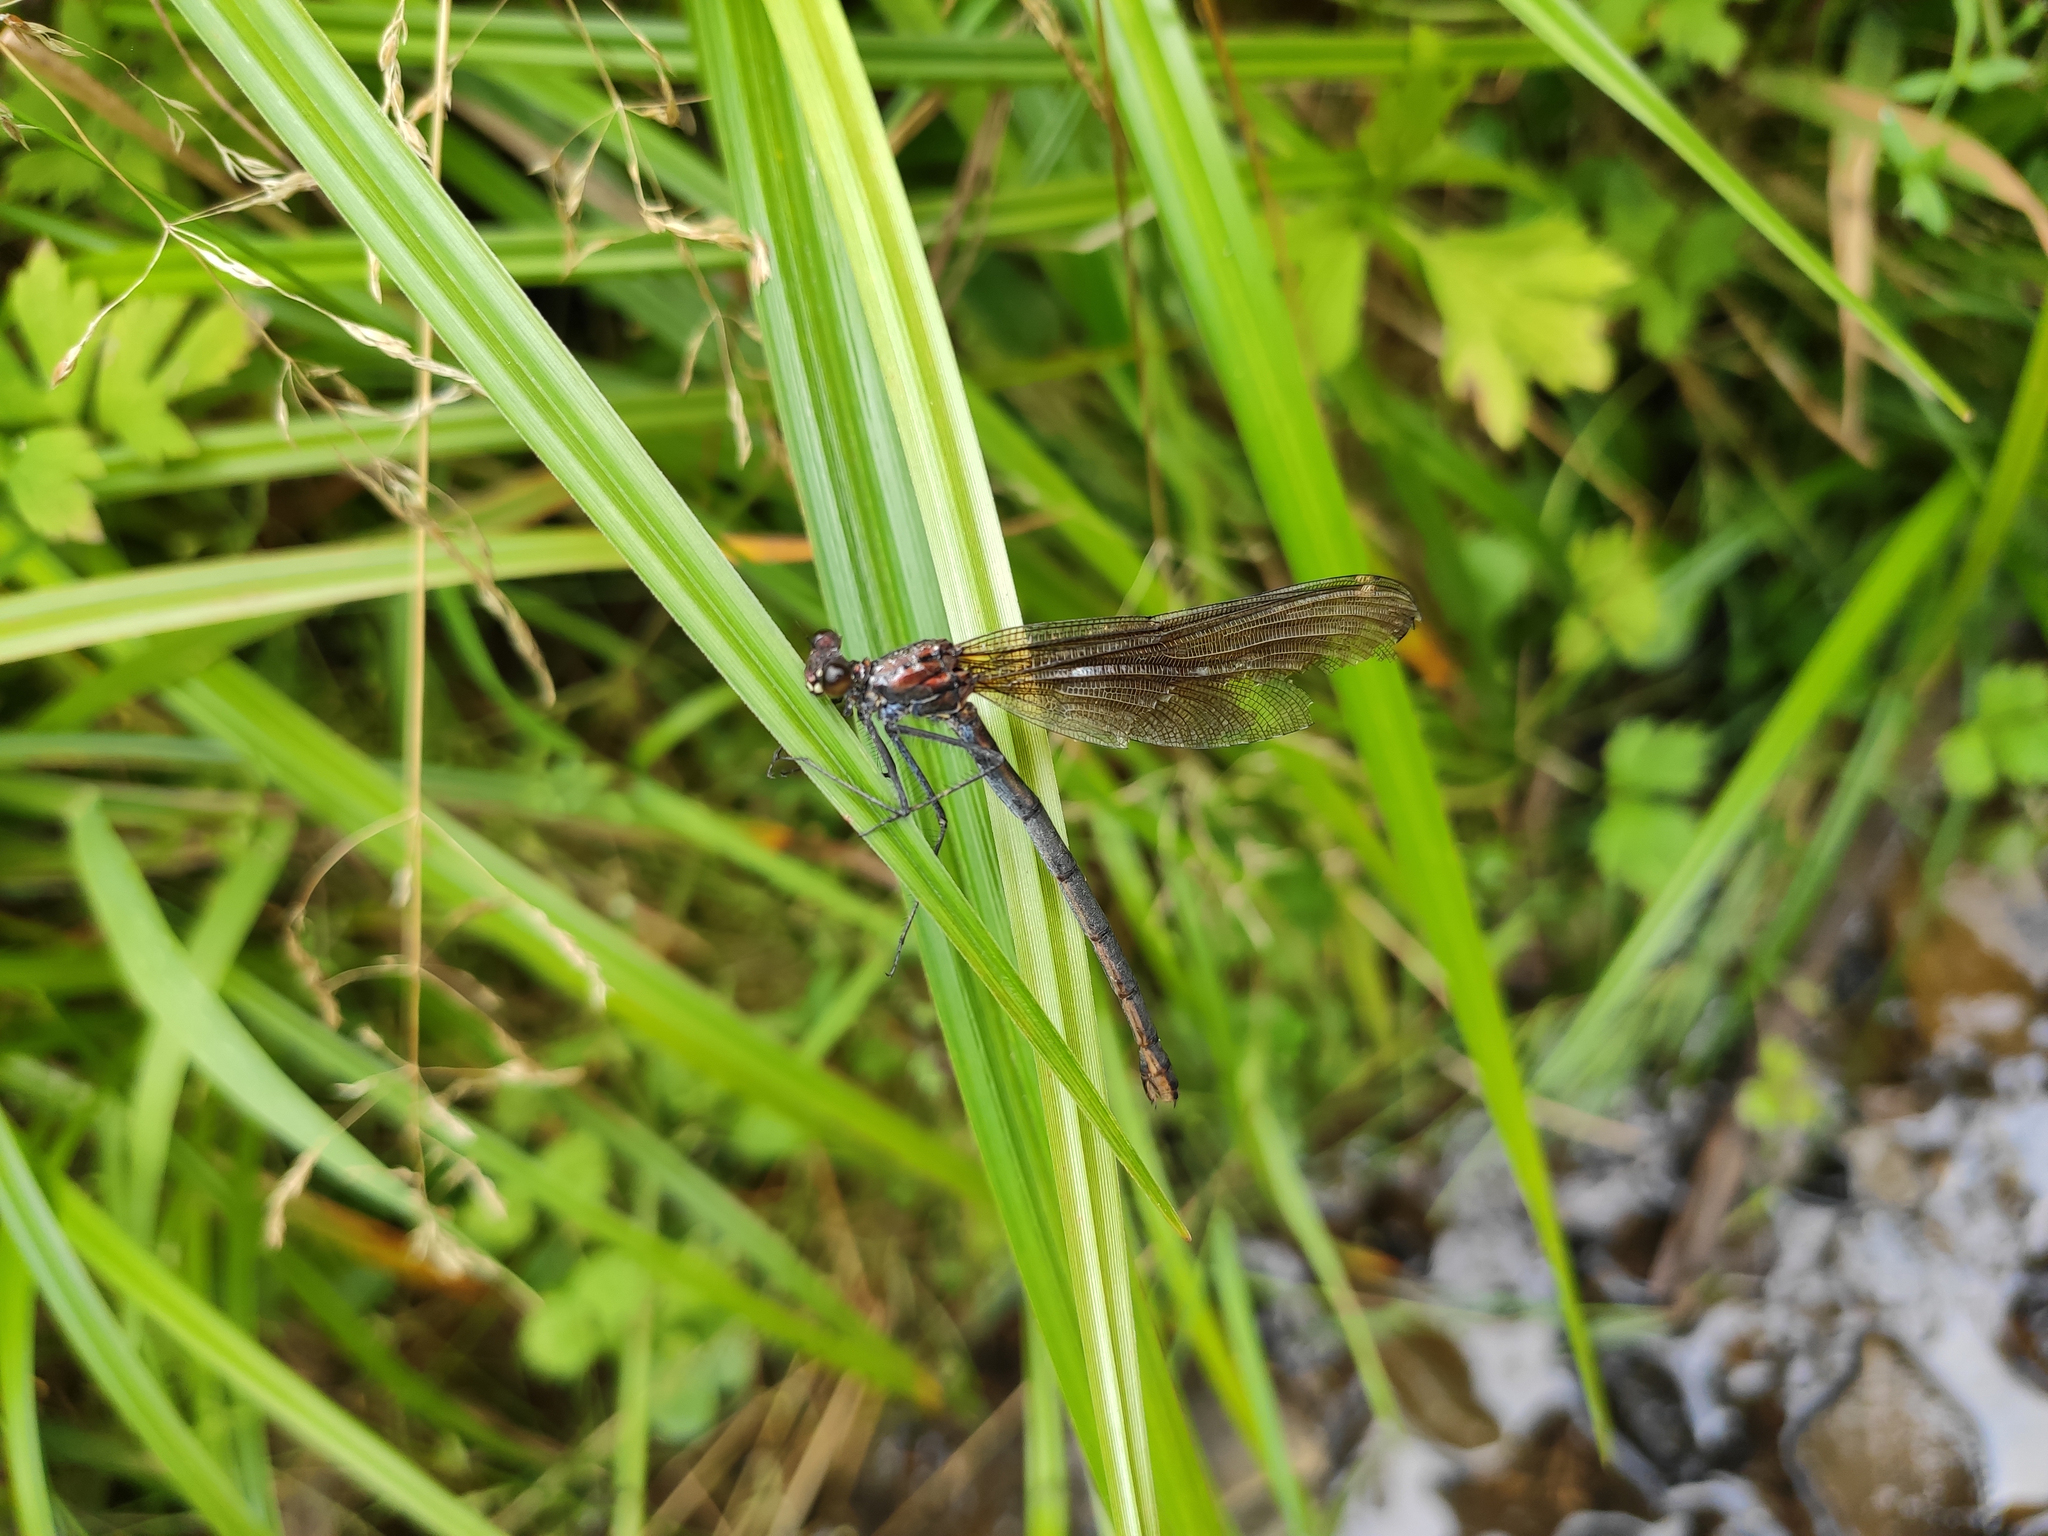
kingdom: Animalia
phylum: Arthropoda
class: Insecta
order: Odonata
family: Calopterygidae
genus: Calopteryx
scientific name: Calopteryx virgo
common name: Beautiful demoiselle
